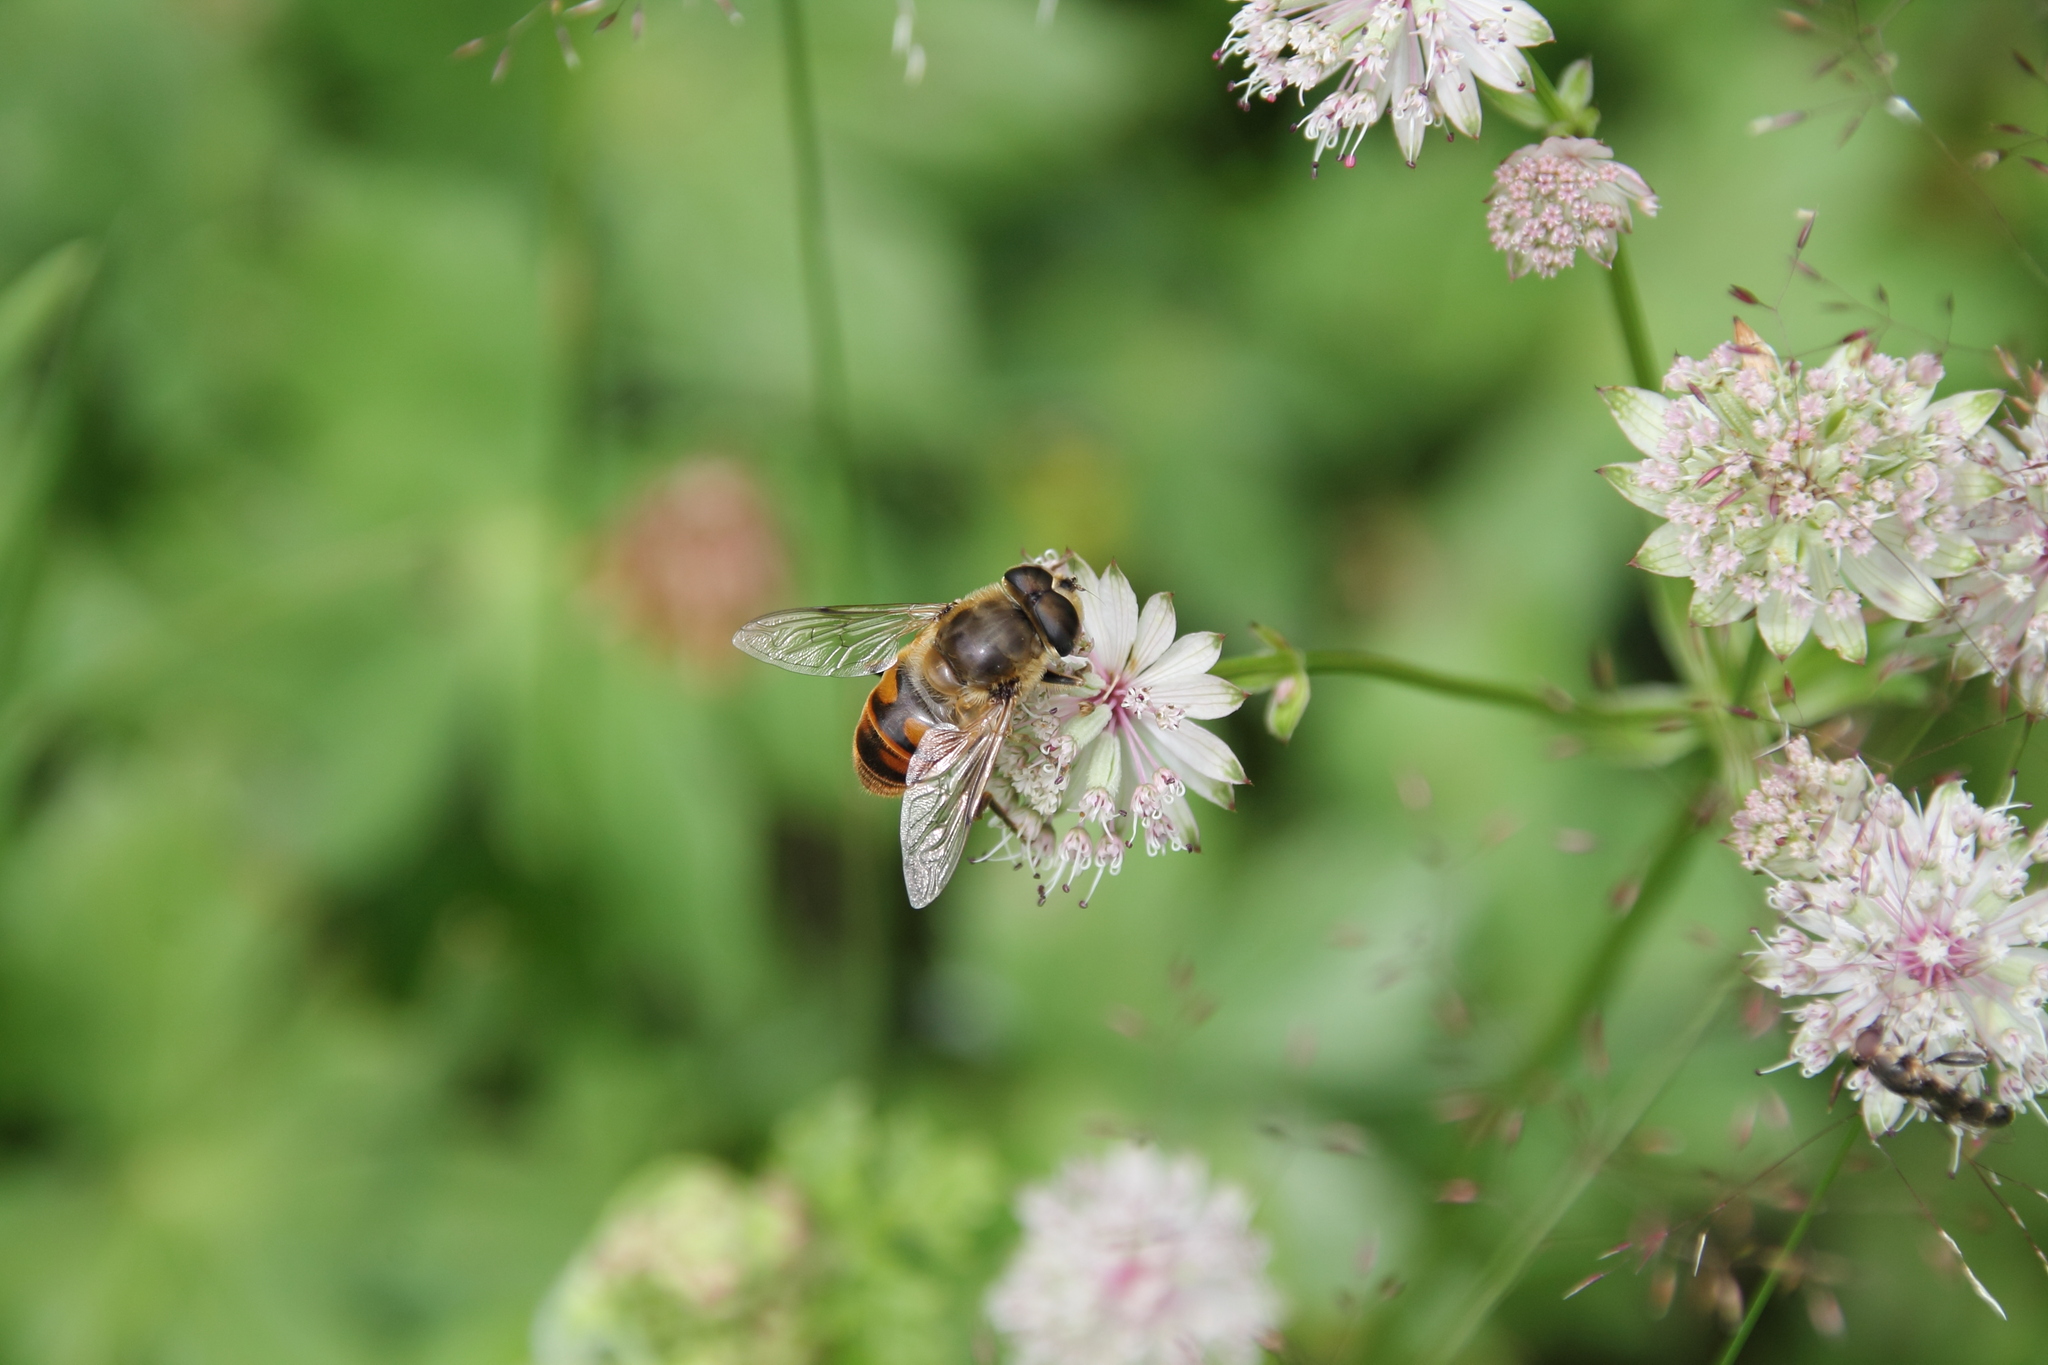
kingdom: Animalia
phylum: Arthropoda
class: Insecta
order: Diptera
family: Syrphidae
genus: Eristalis
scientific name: Eristalis tenax
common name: Drone fly
